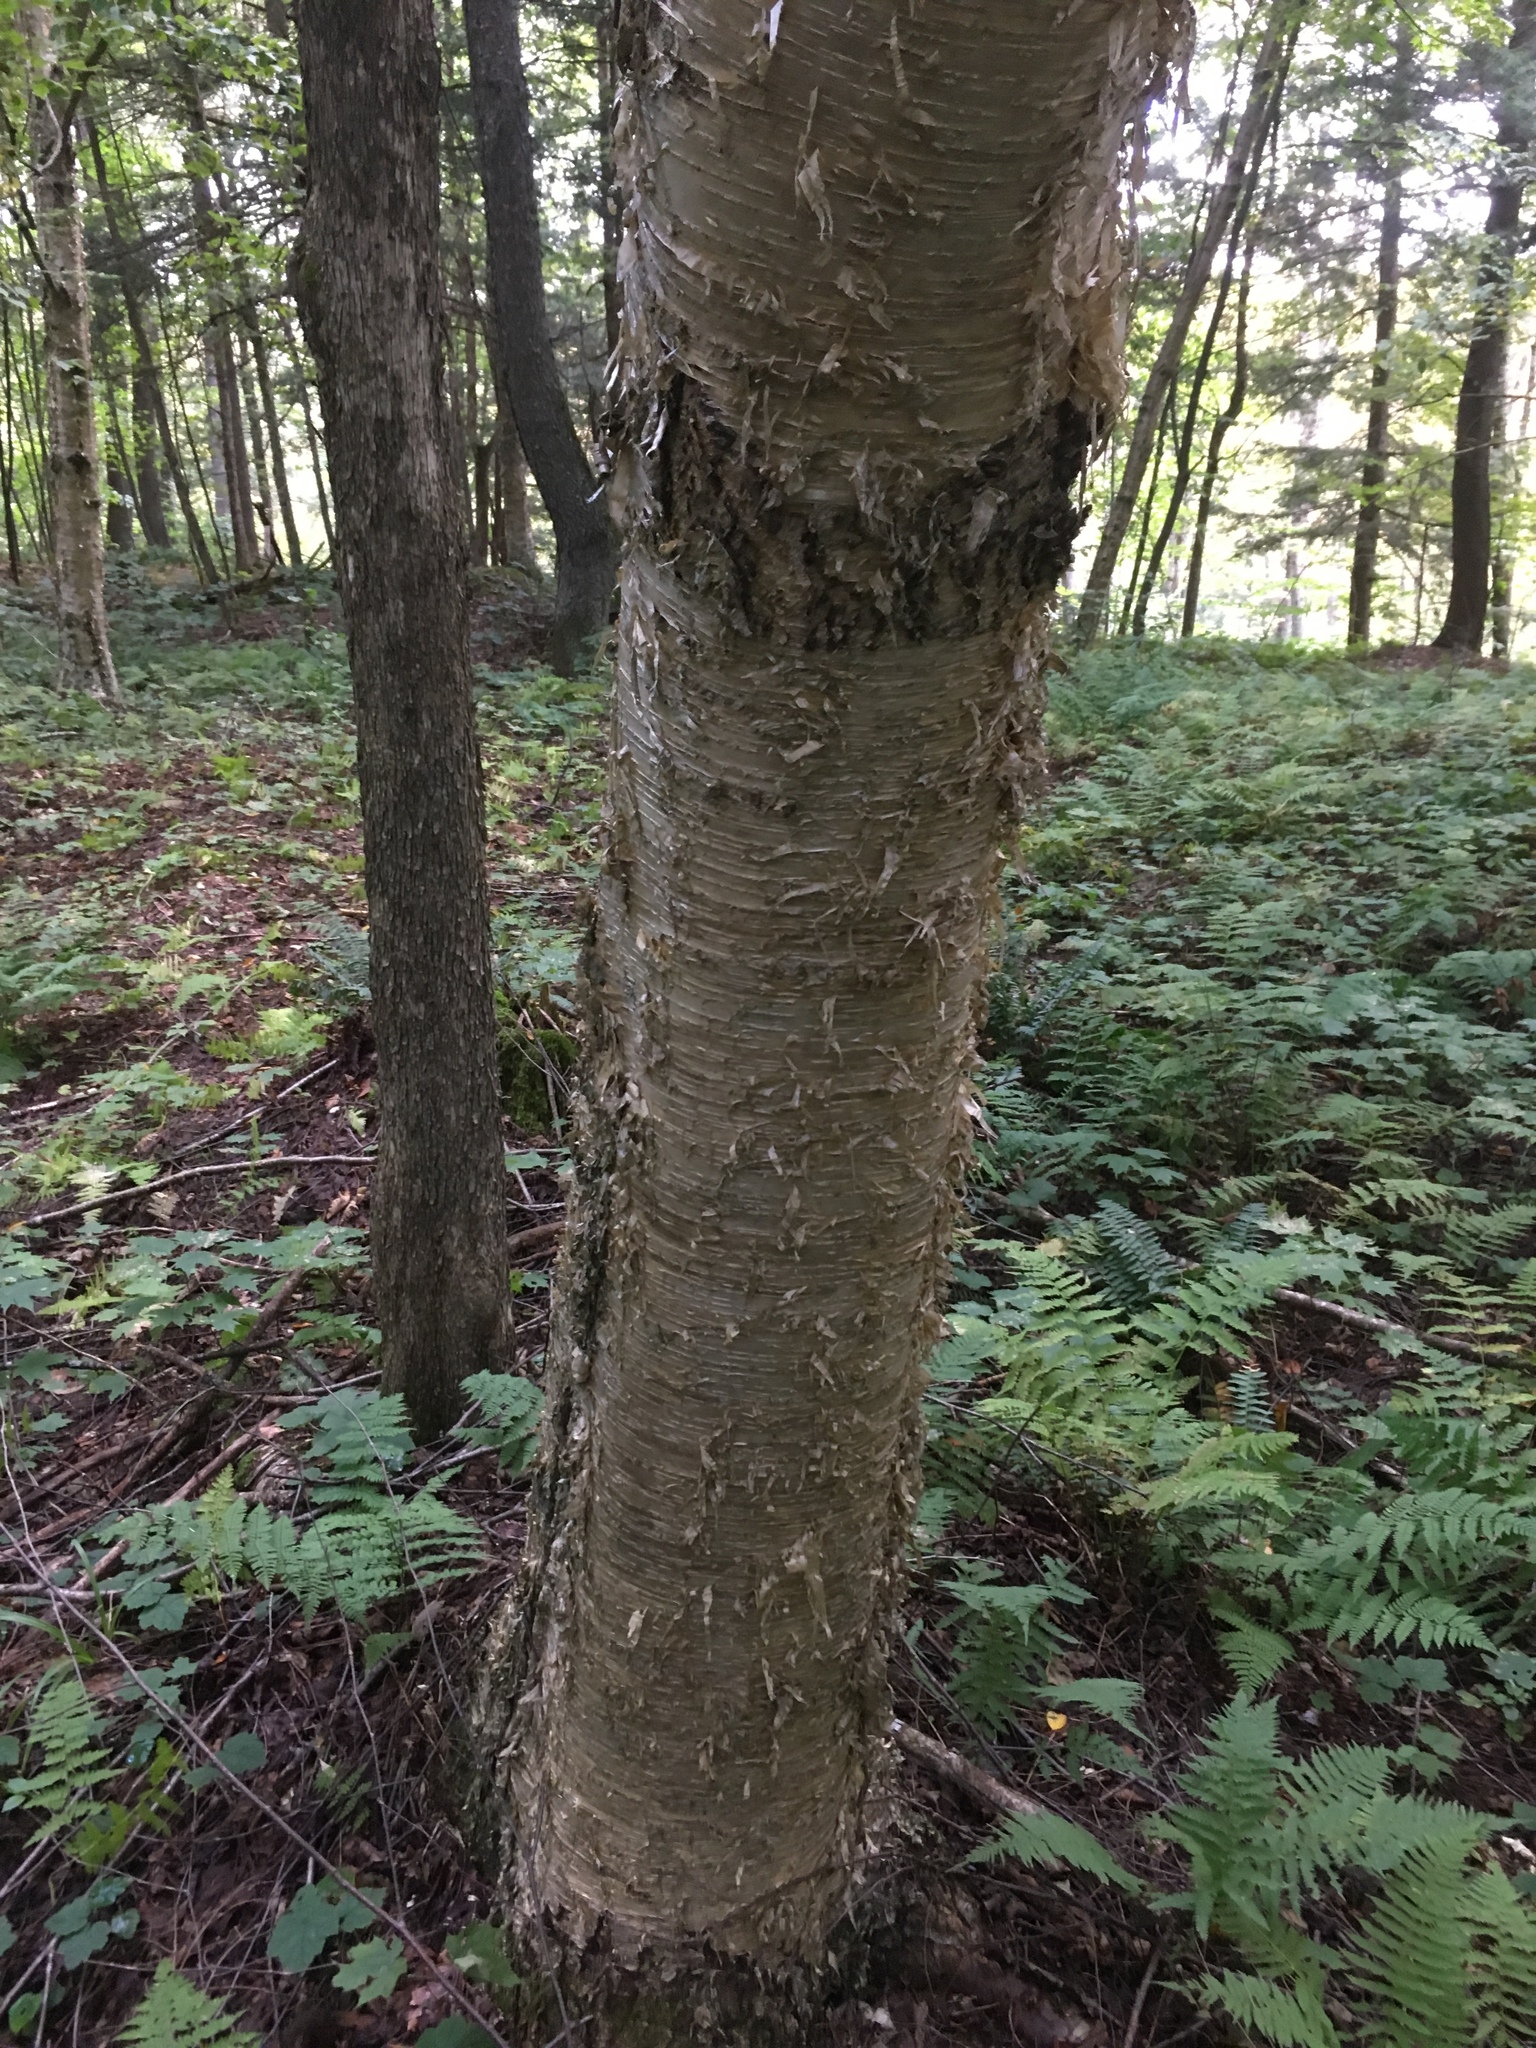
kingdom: Plantae
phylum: Tracheophyta
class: Magnoliopsida
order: Fagales
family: Betulaceae
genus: Betula
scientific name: Betula alleghaniensis
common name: Yellow birch
